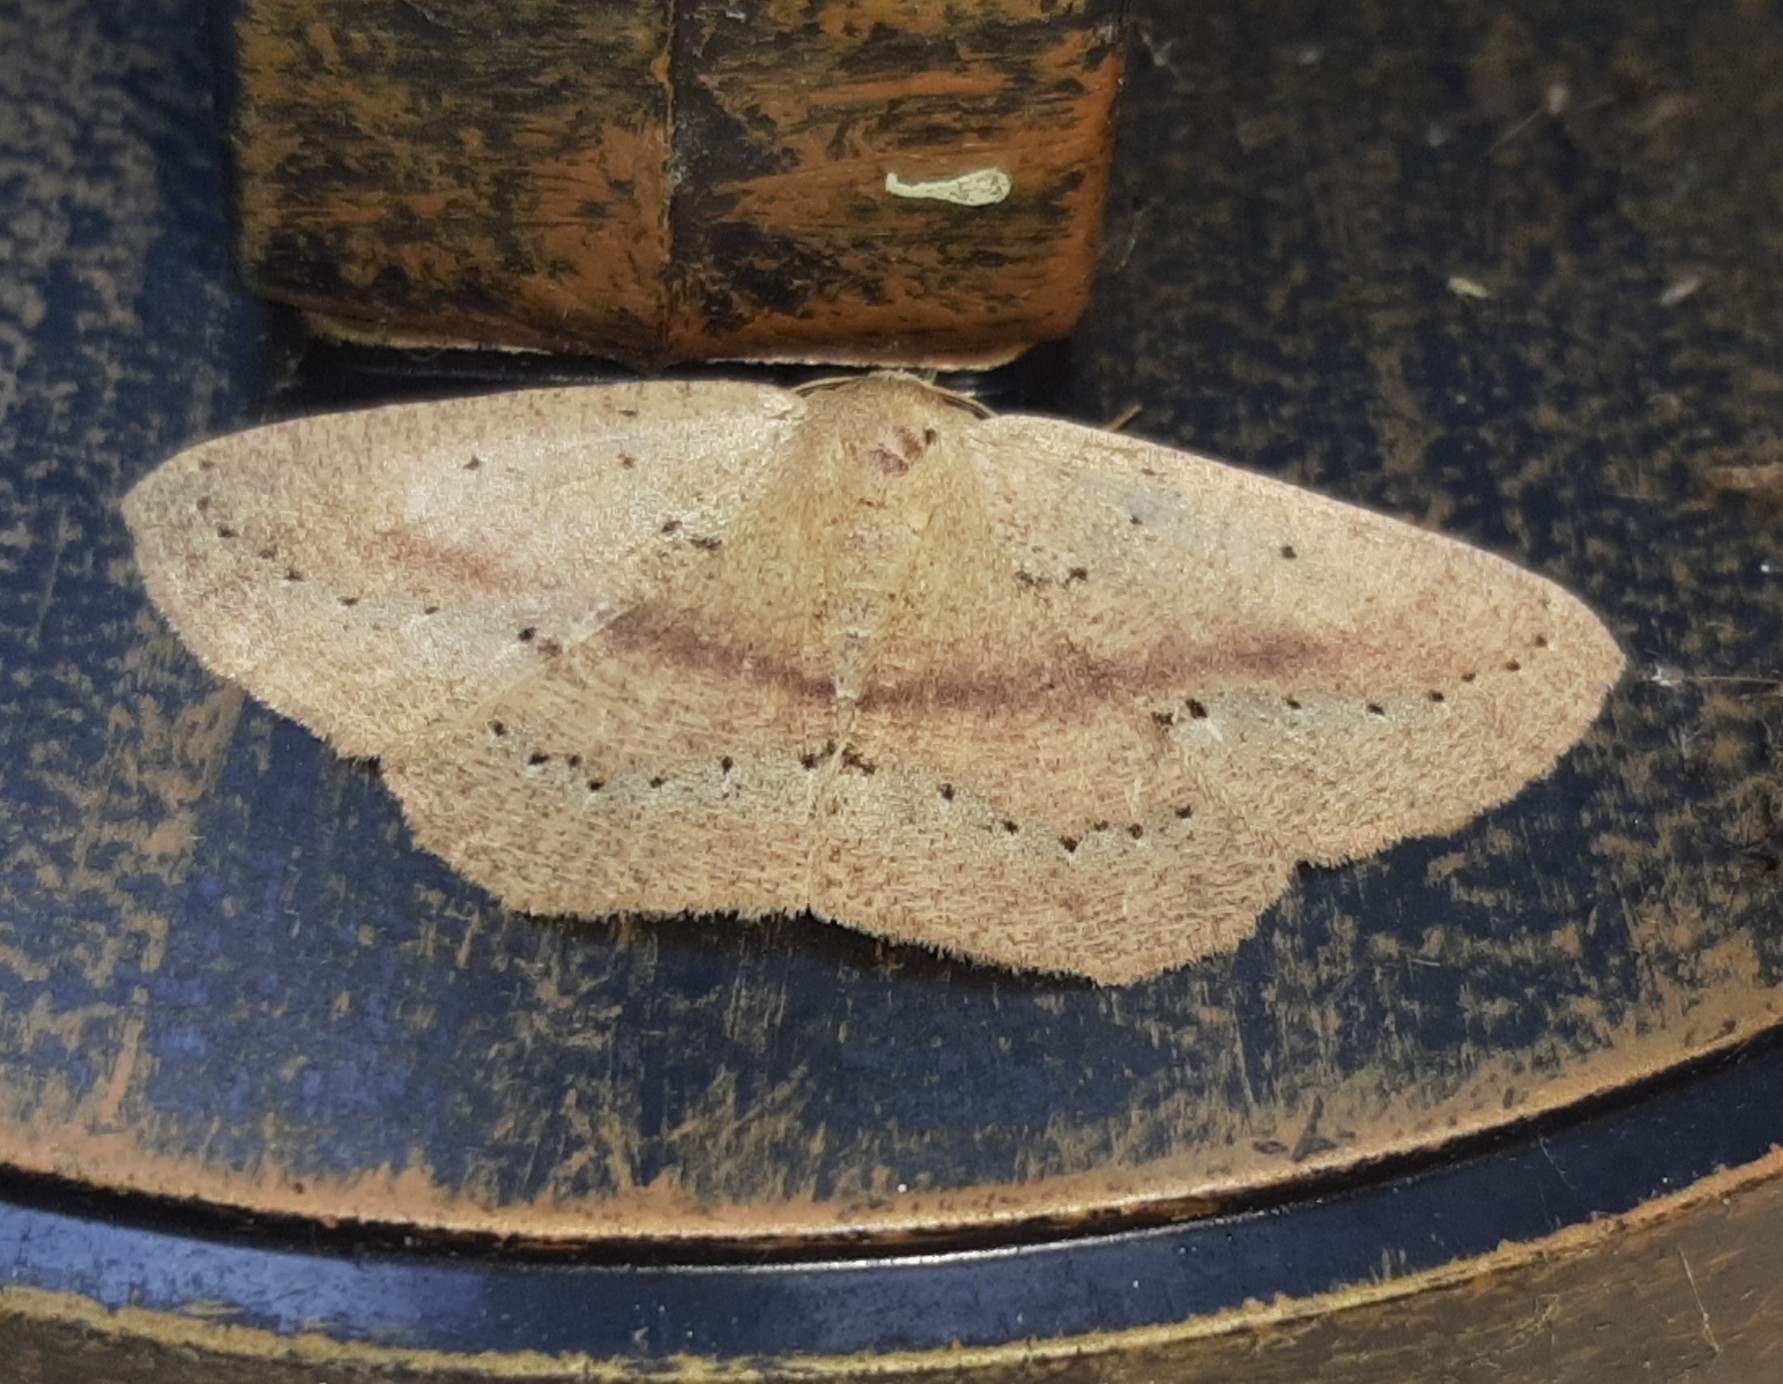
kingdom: Animalia
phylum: Arthropoda
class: Insecta
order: Lepidoptera
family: Geometridae
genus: Sabulodes
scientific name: Sabulodes colombiata
